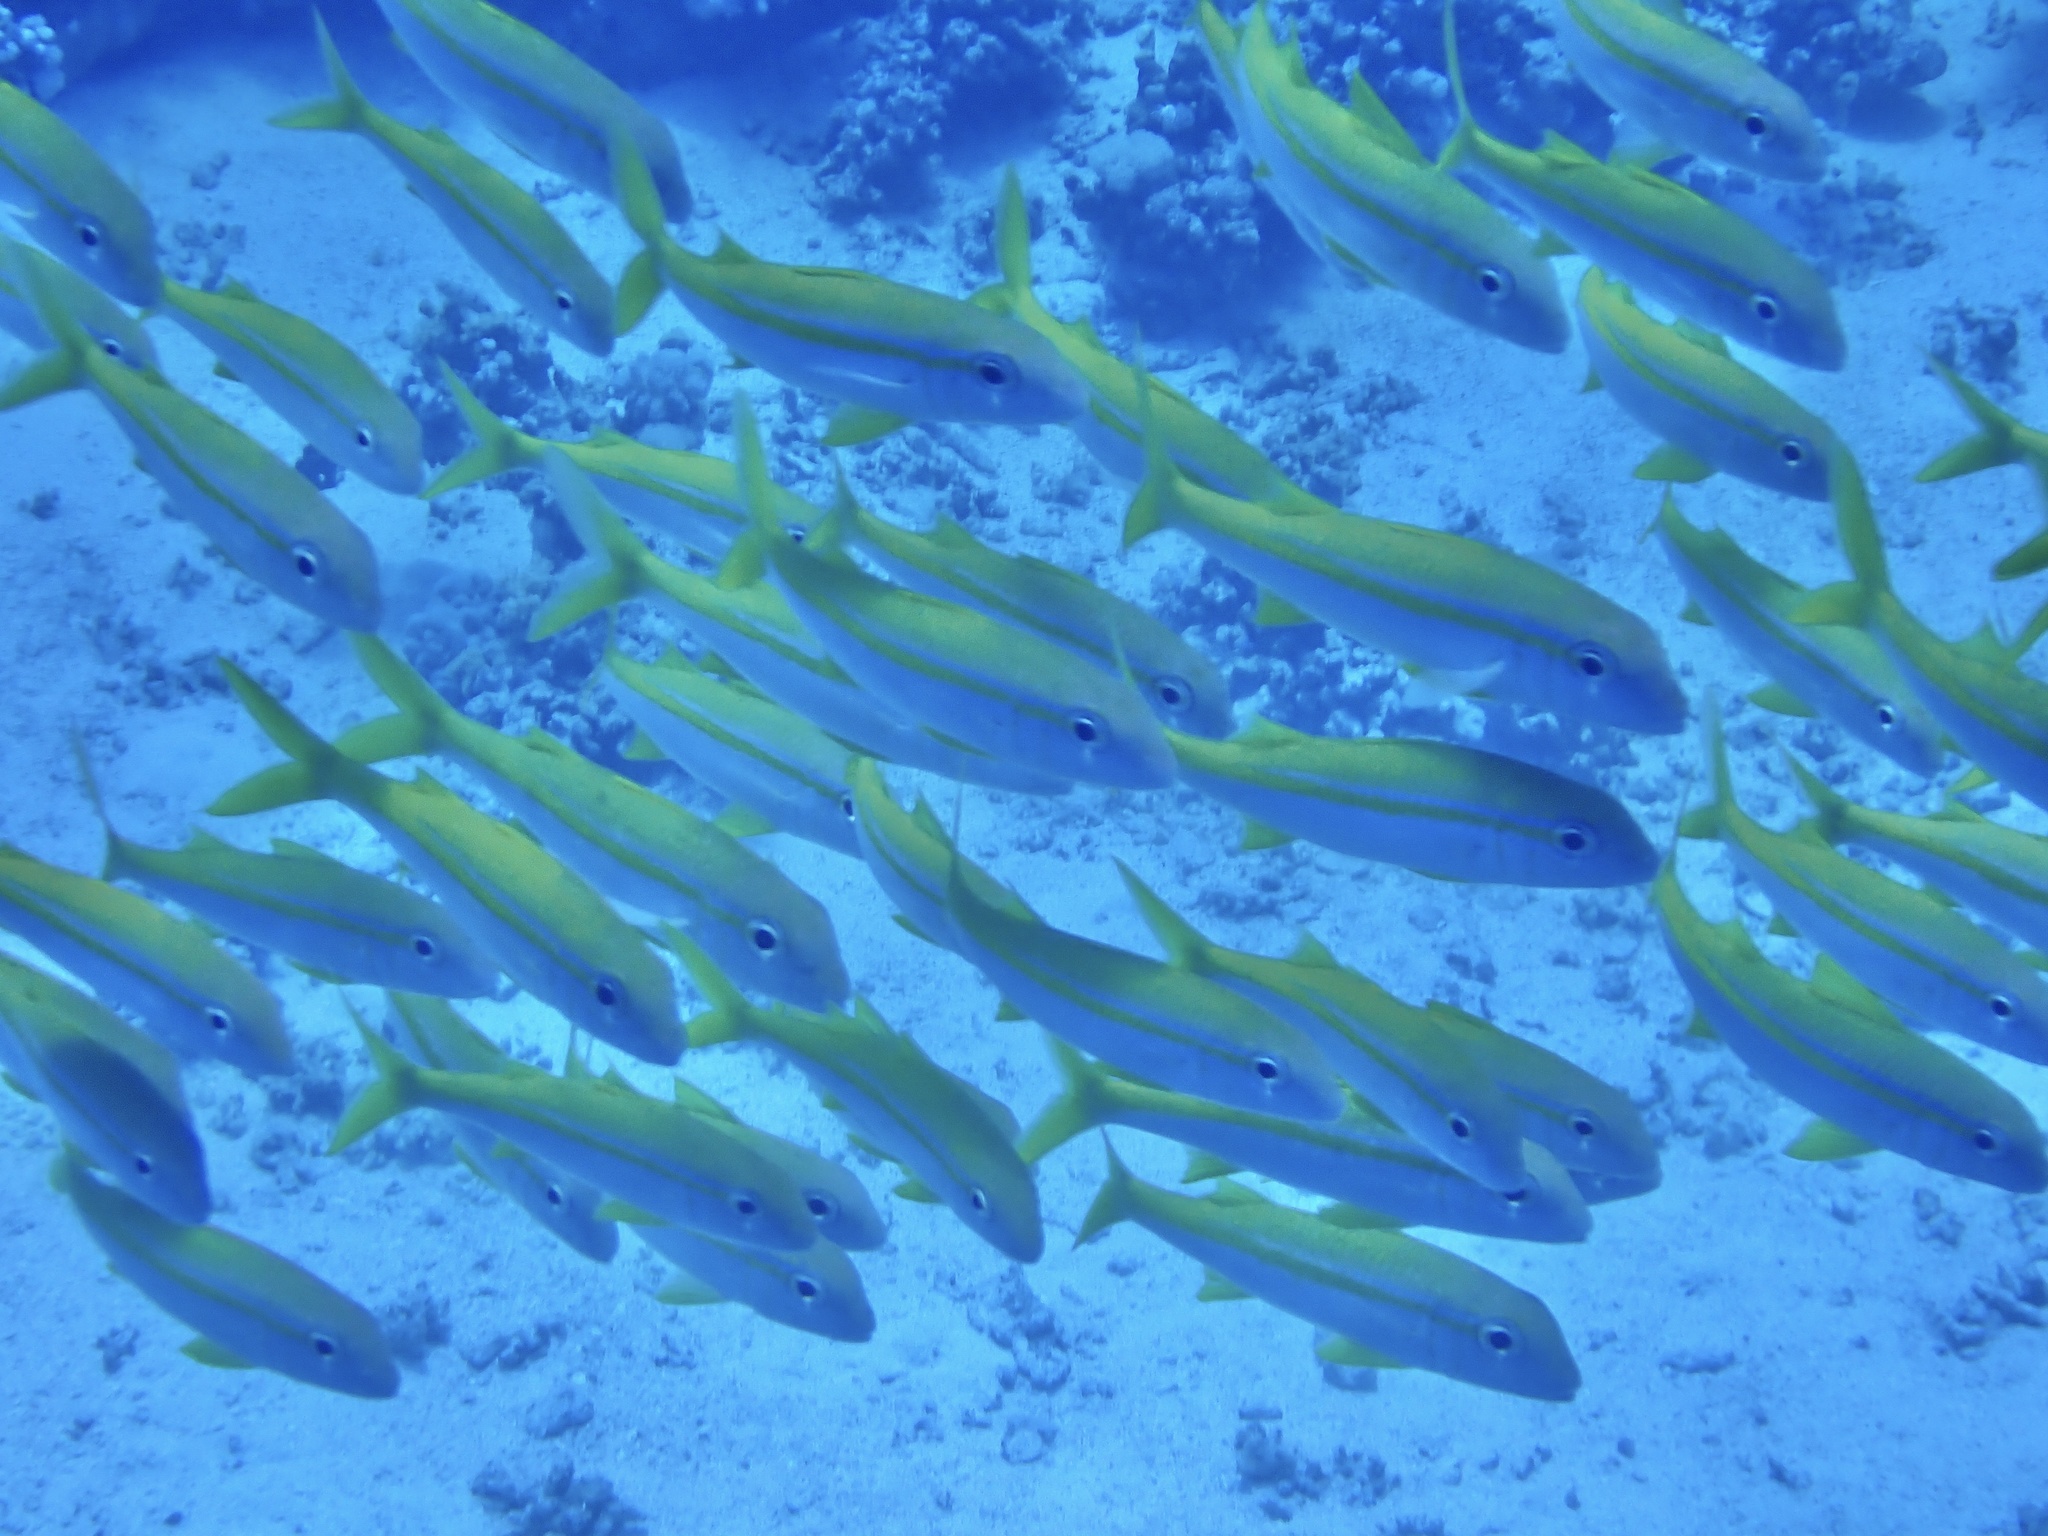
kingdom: Animalia
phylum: Chordata
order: Perciformes
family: Mullidae
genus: Mulloidichthys
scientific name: Mulloidichthys vanicolensis
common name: Yellowfin goatfish
